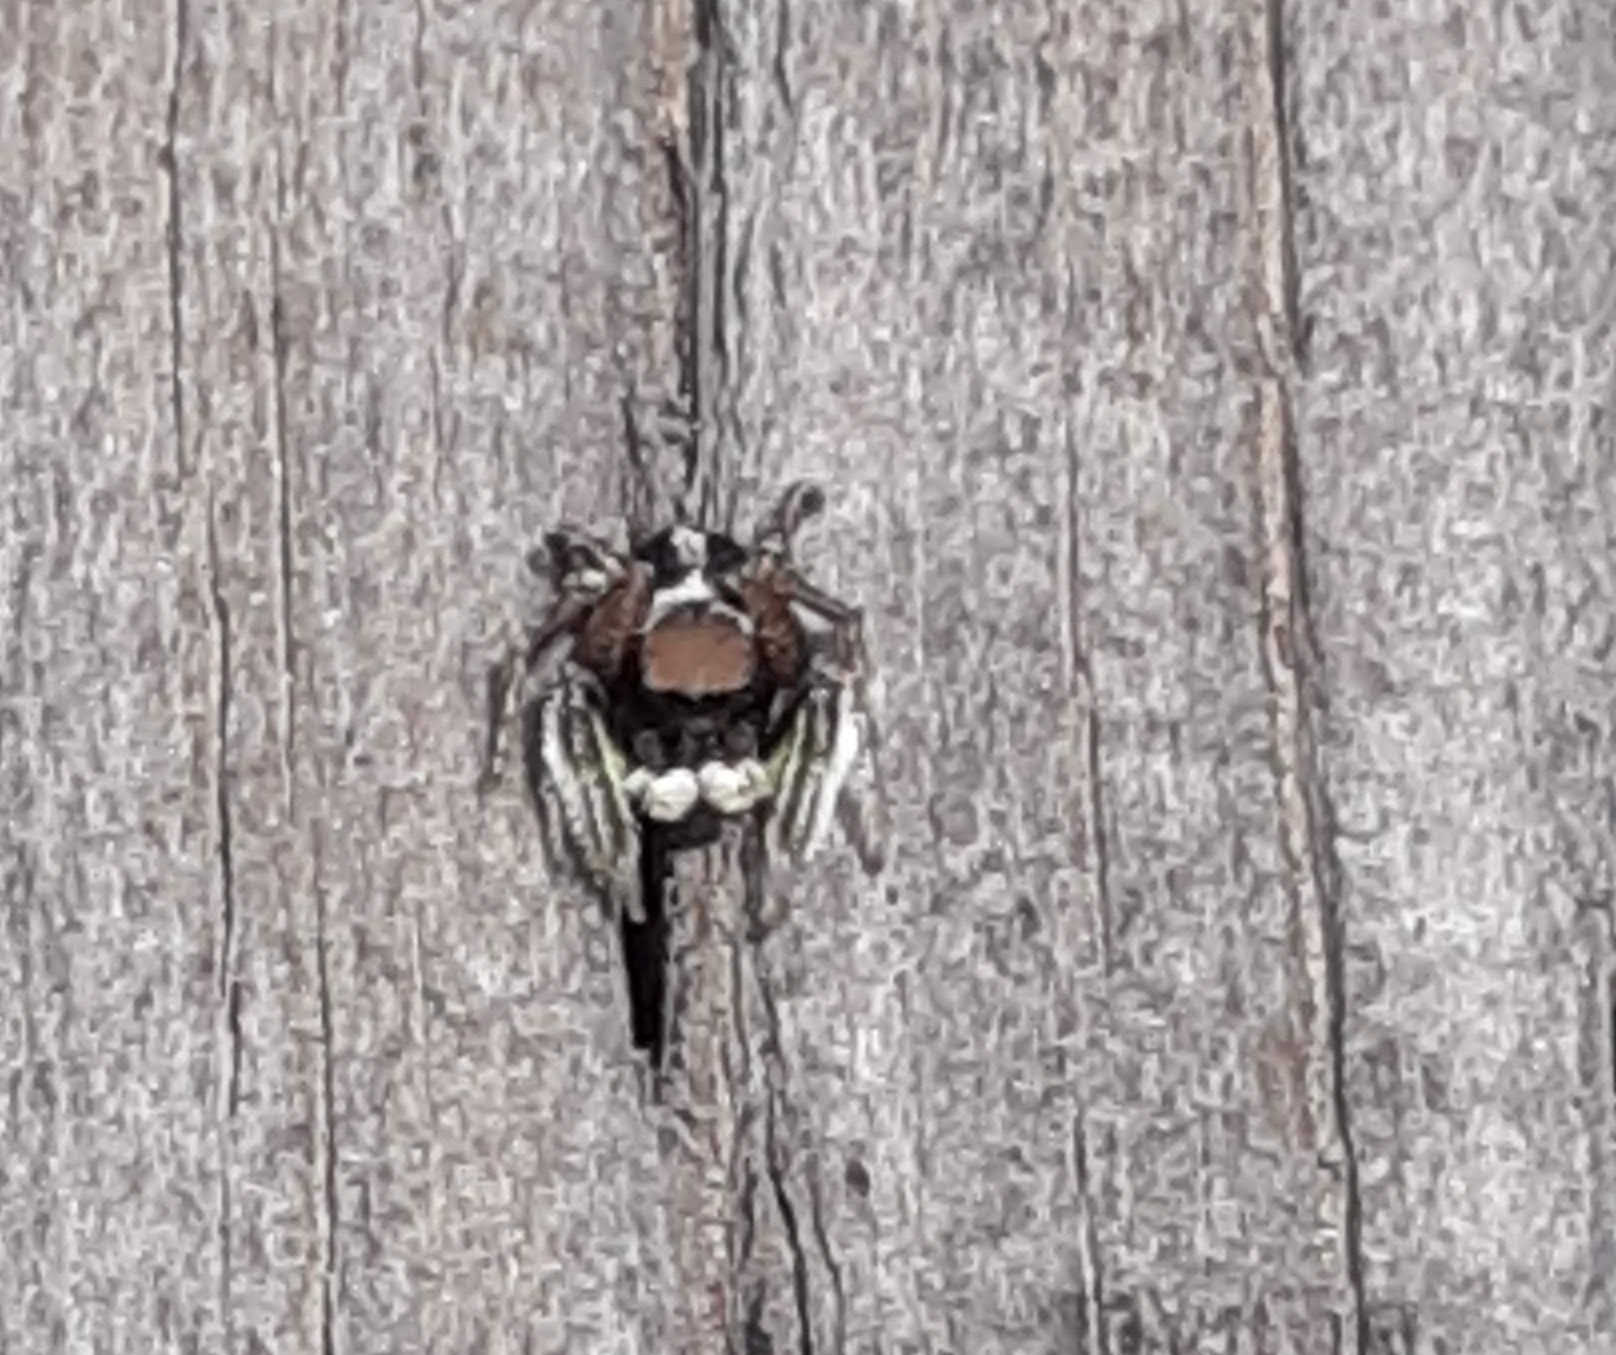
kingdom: Animalia
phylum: Arthropoda
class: Arachnida
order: Araneae
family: Salticidae
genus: Habronattus
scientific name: Habronattus jucundus
